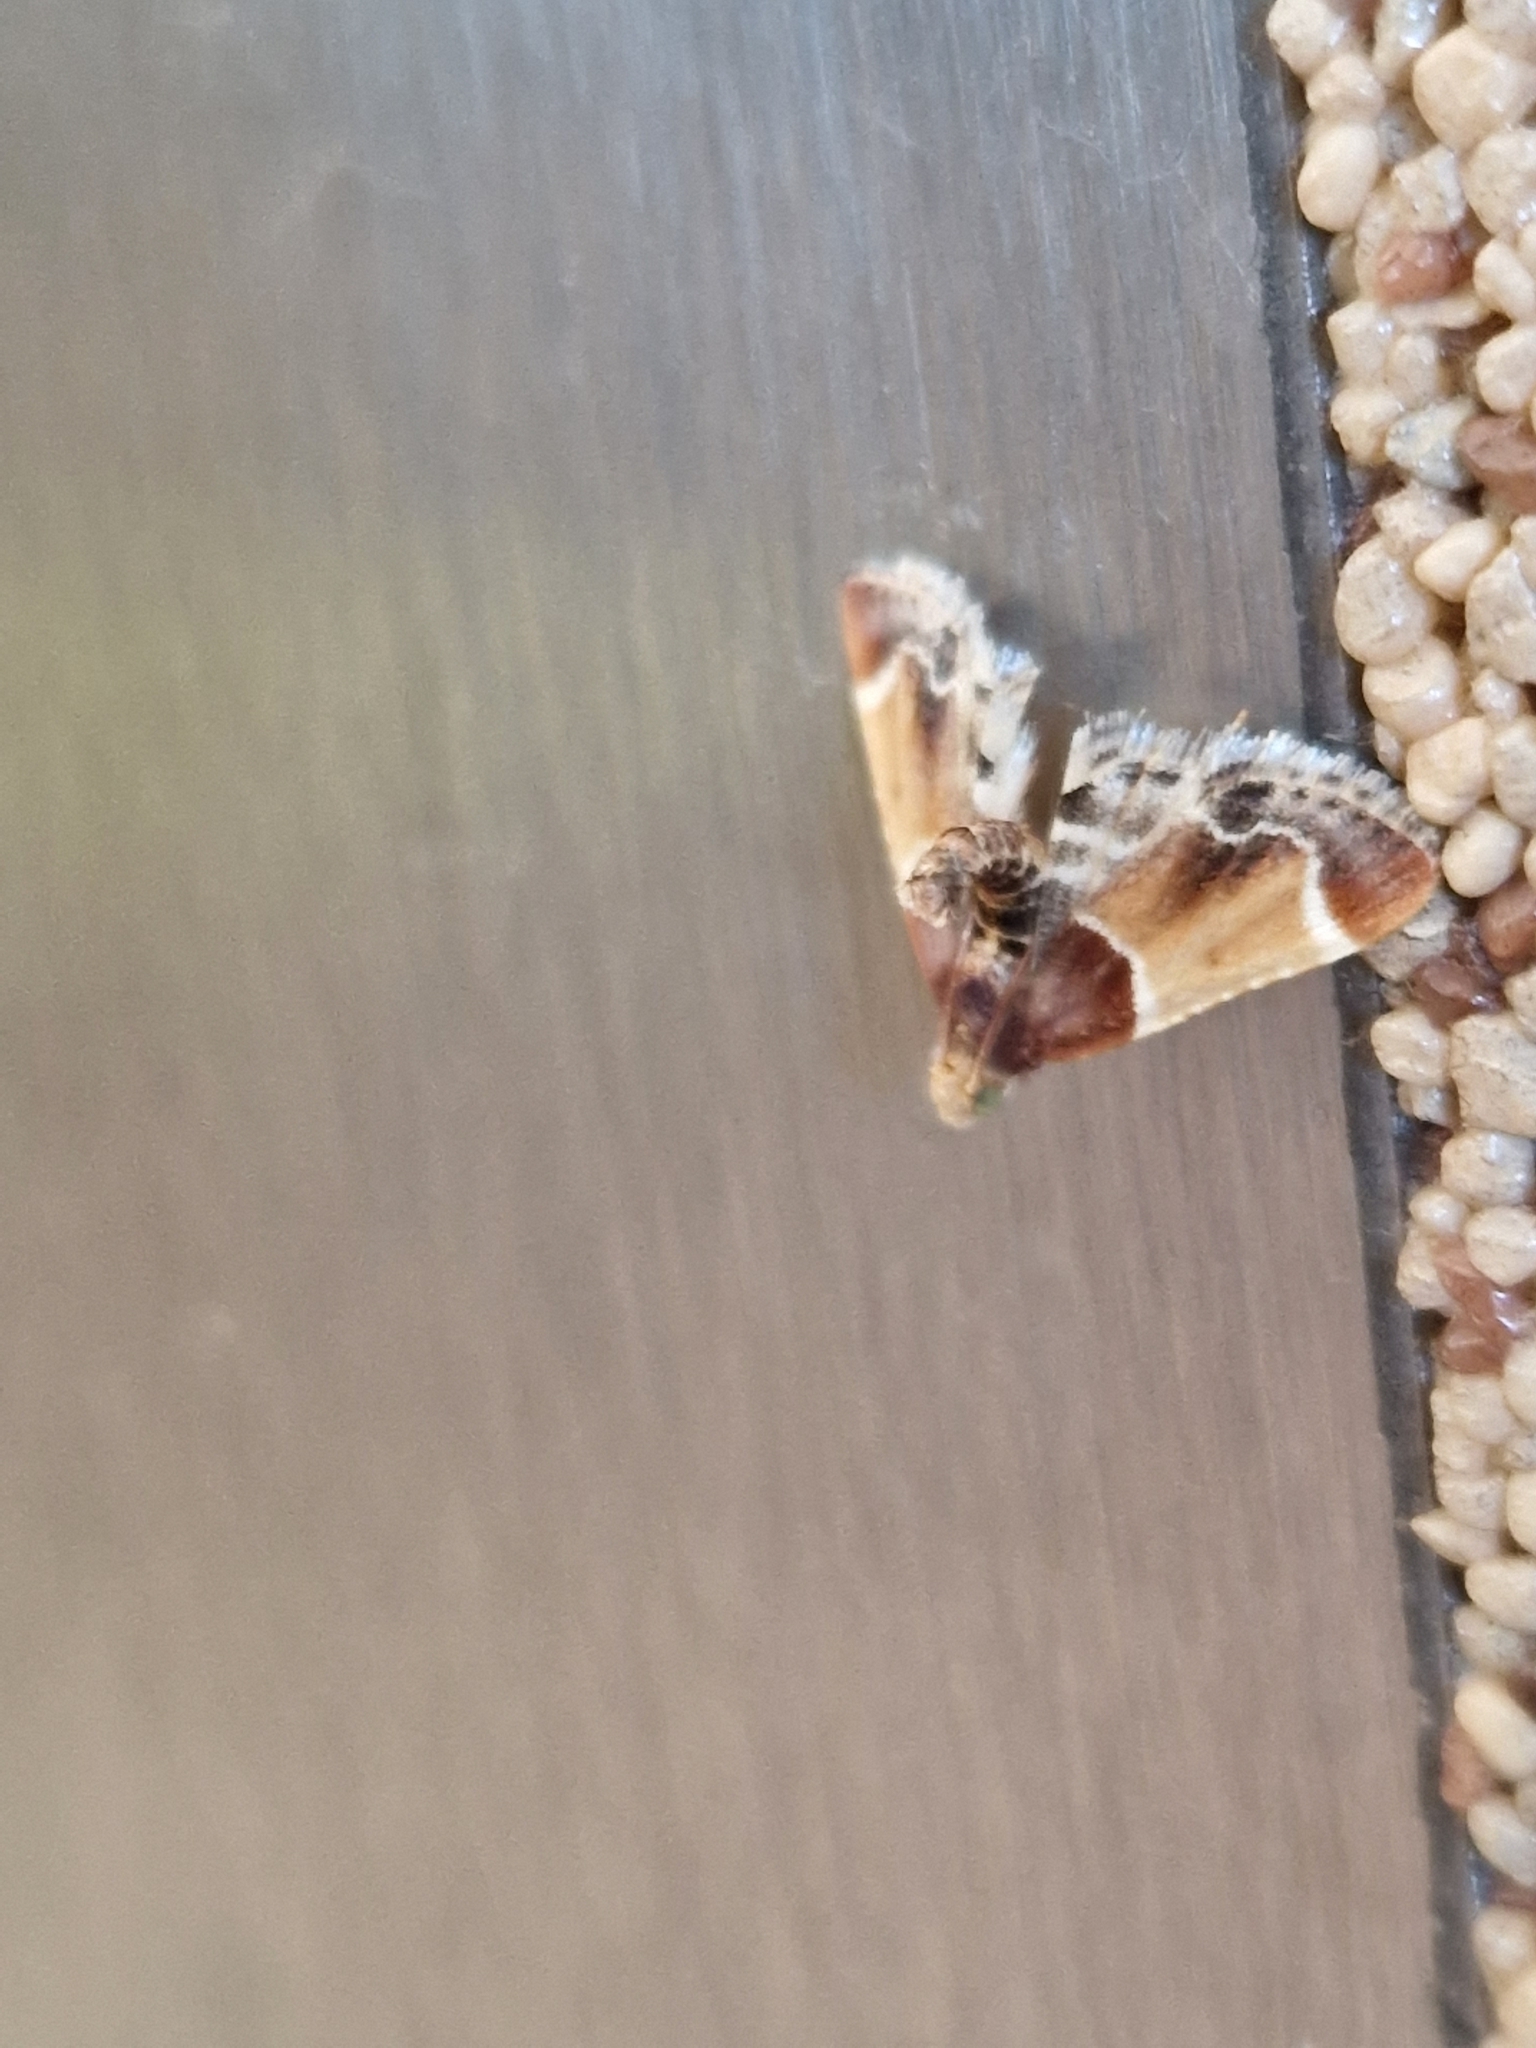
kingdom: Animalia
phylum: Arthropoda
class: Insecta
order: Lepidoptera
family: Pyralidae
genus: Pyralis
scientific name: Pyralis farinalis
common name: Meal moth
